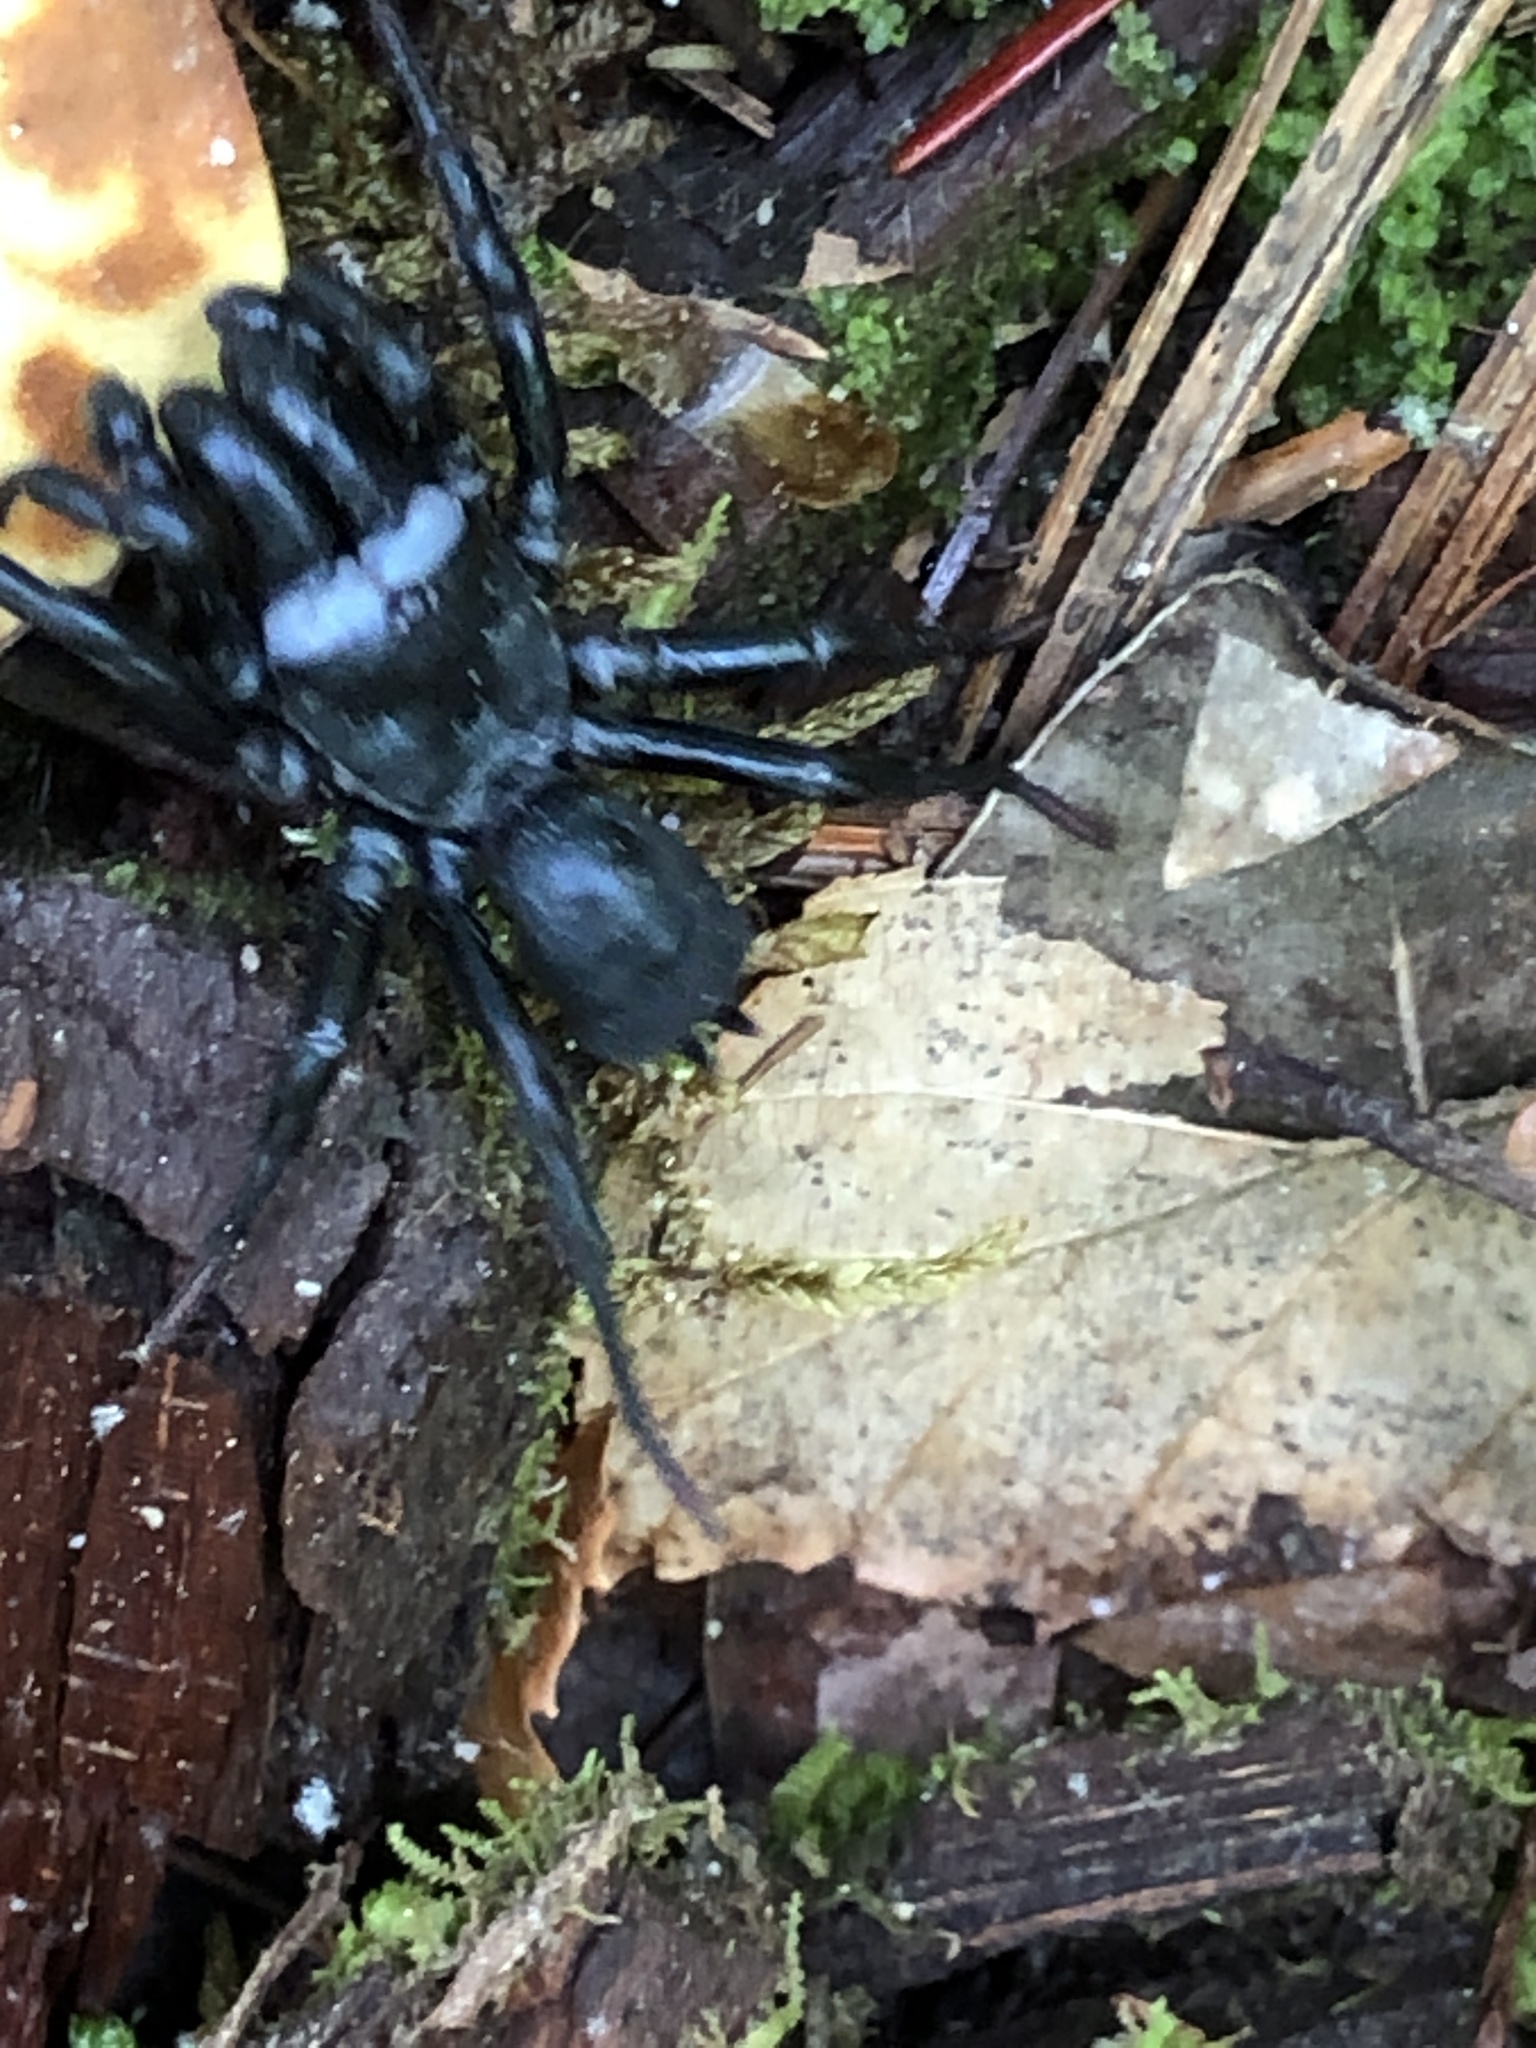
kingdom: Animalia
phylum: Arthropoda
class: Arachnida
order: Araneae
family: Atypidae
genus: Sphodros
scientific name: Sphodros niger
